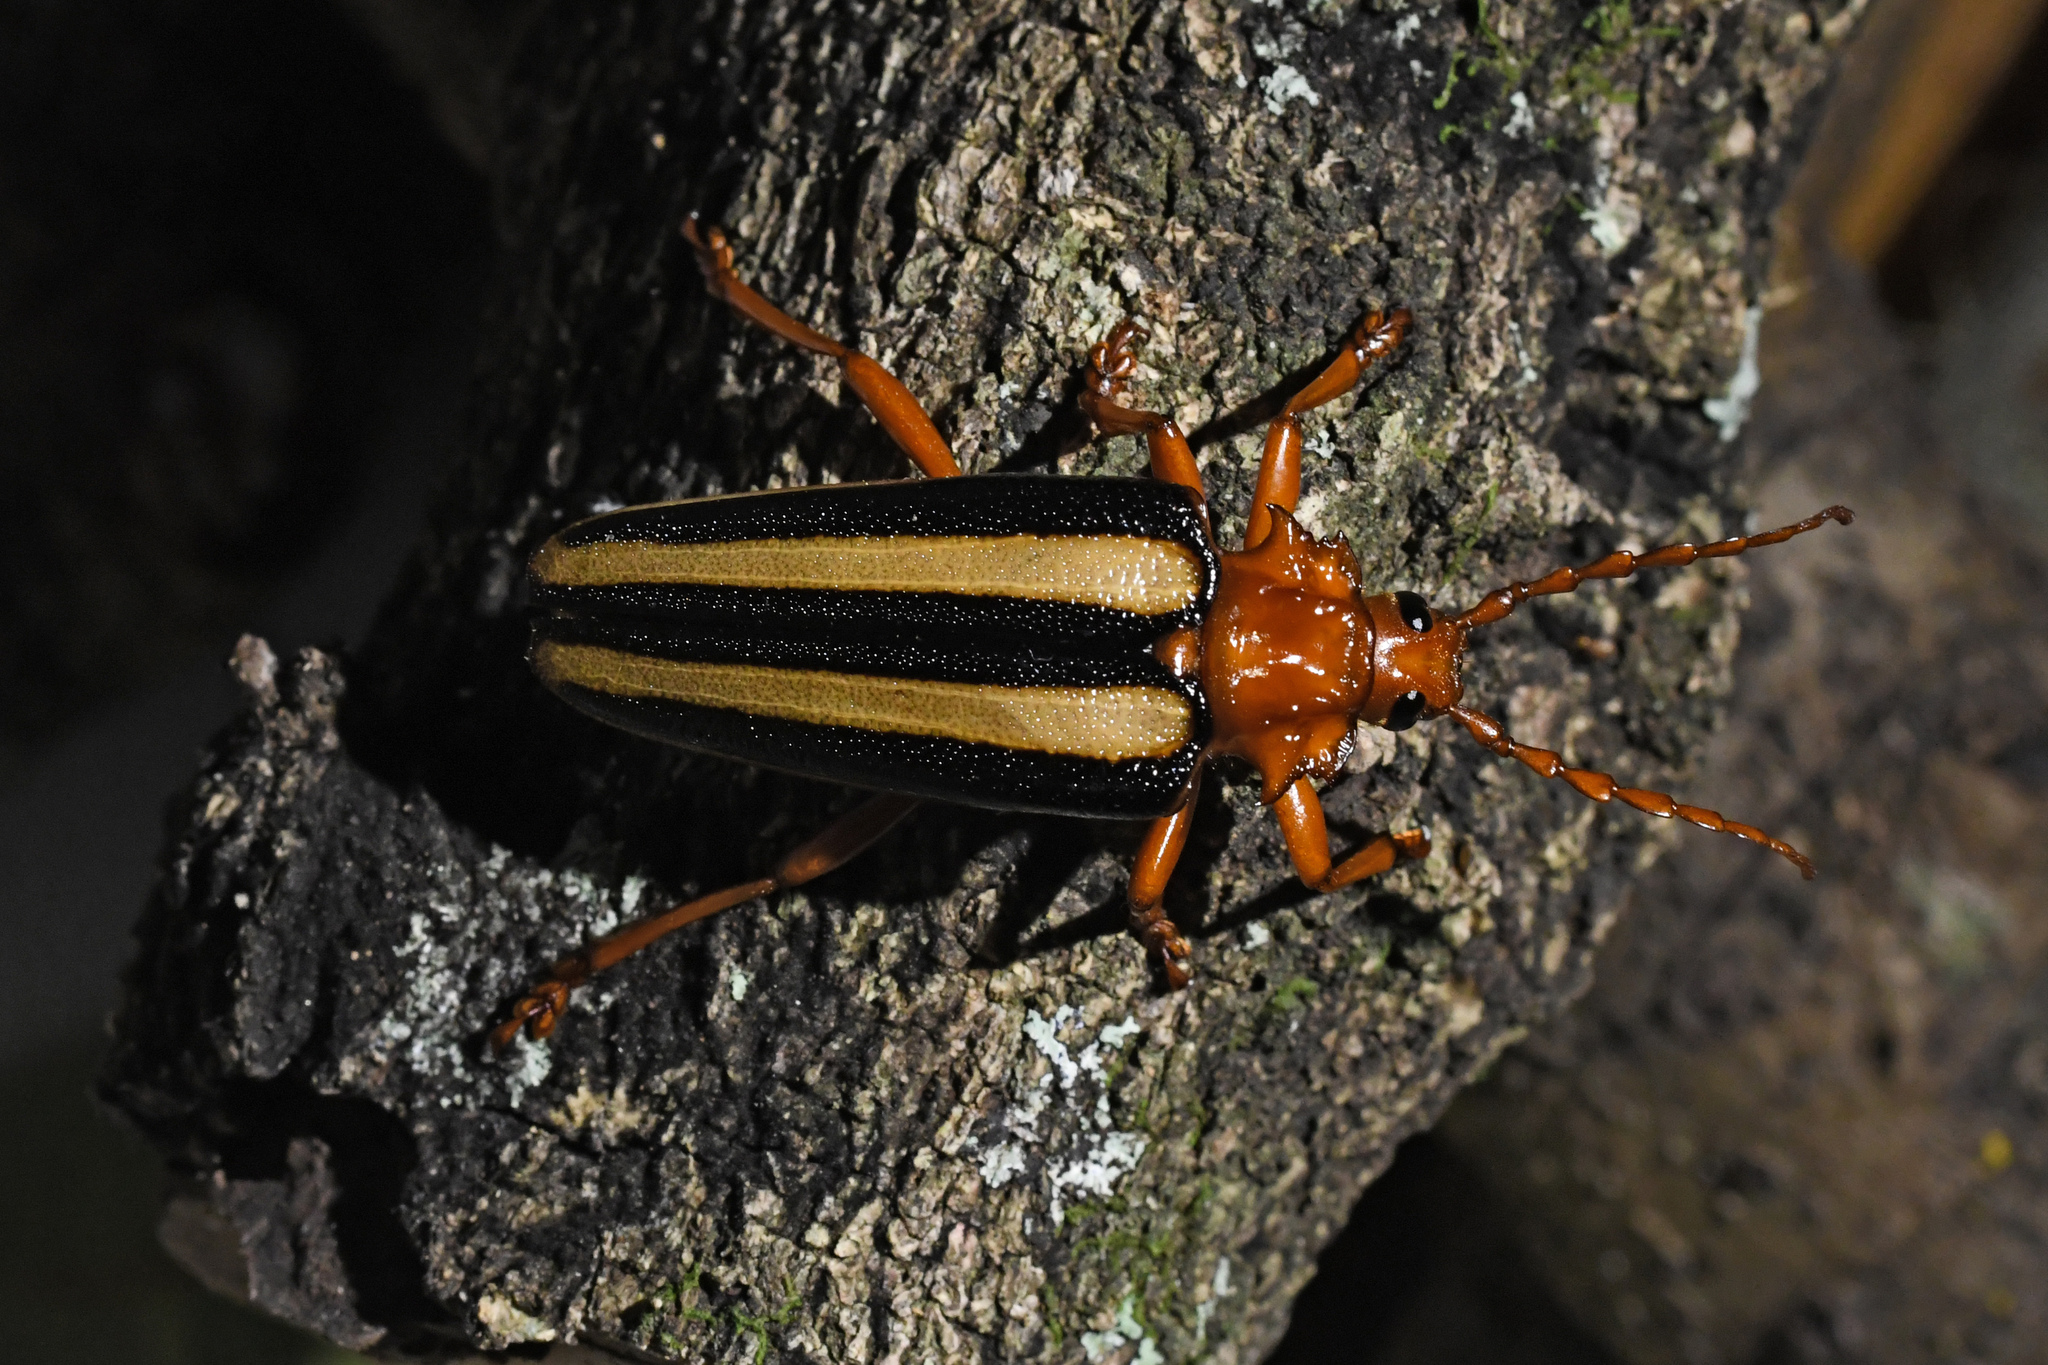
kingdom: Animalia
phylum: Arthropoda
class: Insecta
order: Coleoptera
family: Cerambycidae
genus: Derancistrus
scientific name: Derancistrus hovorei
